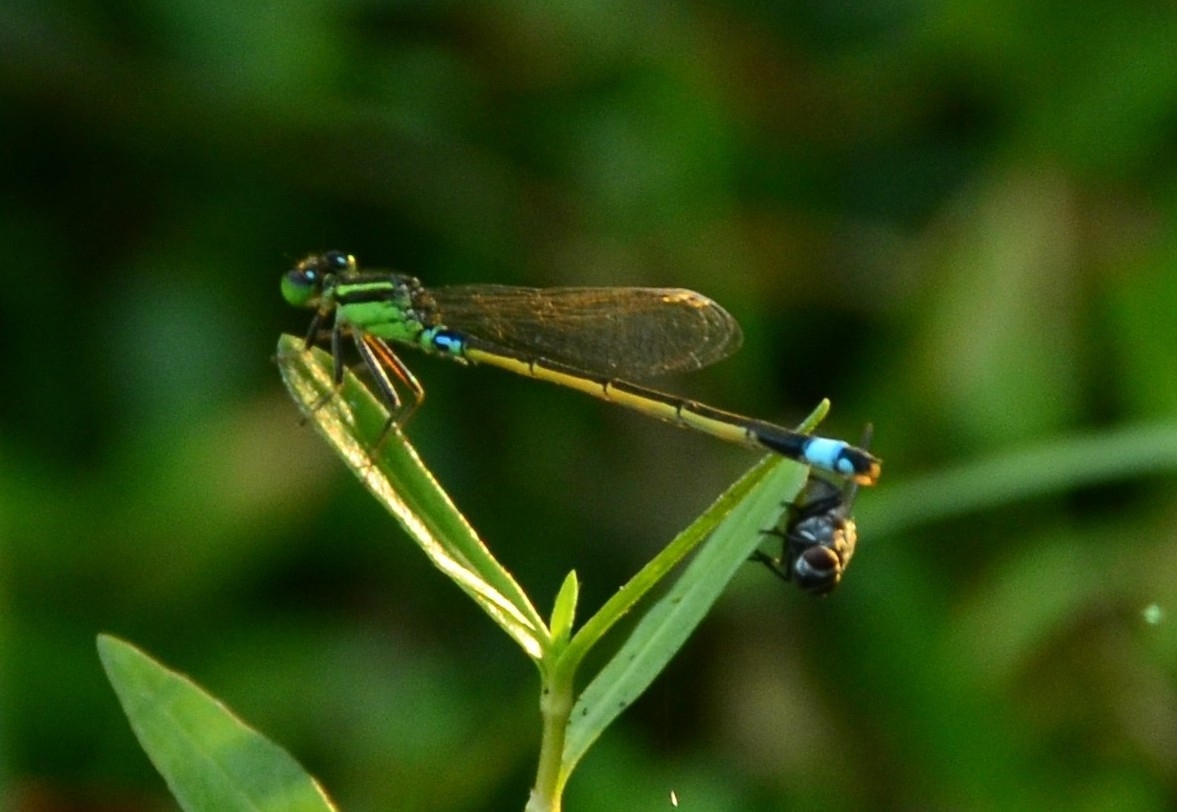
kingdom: Animalia
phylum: Arthropoda
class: Insecta
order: Odonata
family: Coenagrionidae
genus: Ischnura
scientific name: Ischnura senegalensis
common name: Tropical bluetail
